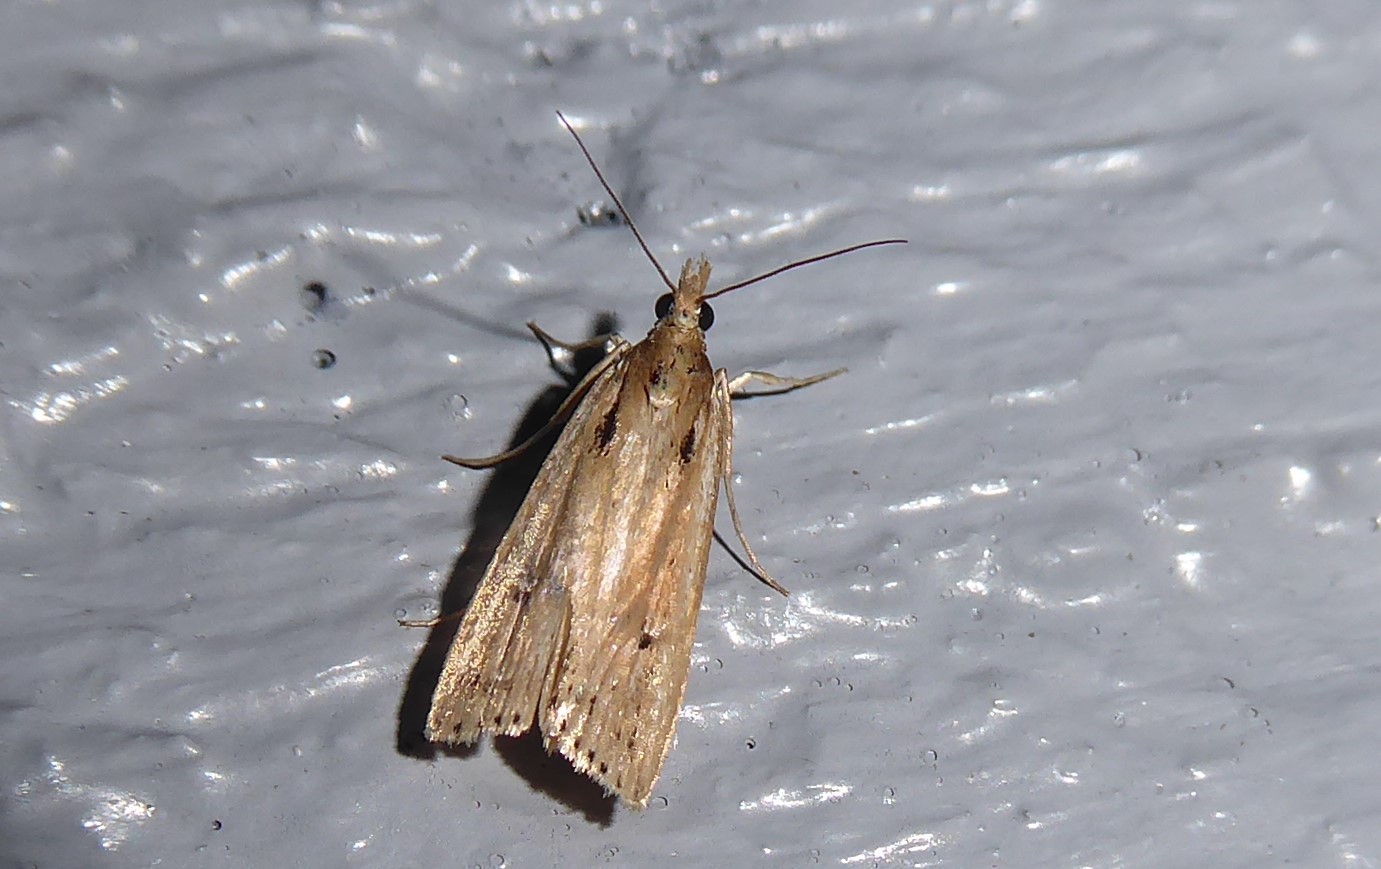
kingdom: Animalia
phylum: Arthropoda
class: Insecta
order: Lepidoptera
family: Crambidae
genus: Eudonia
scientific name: Eudonia sabulosella
